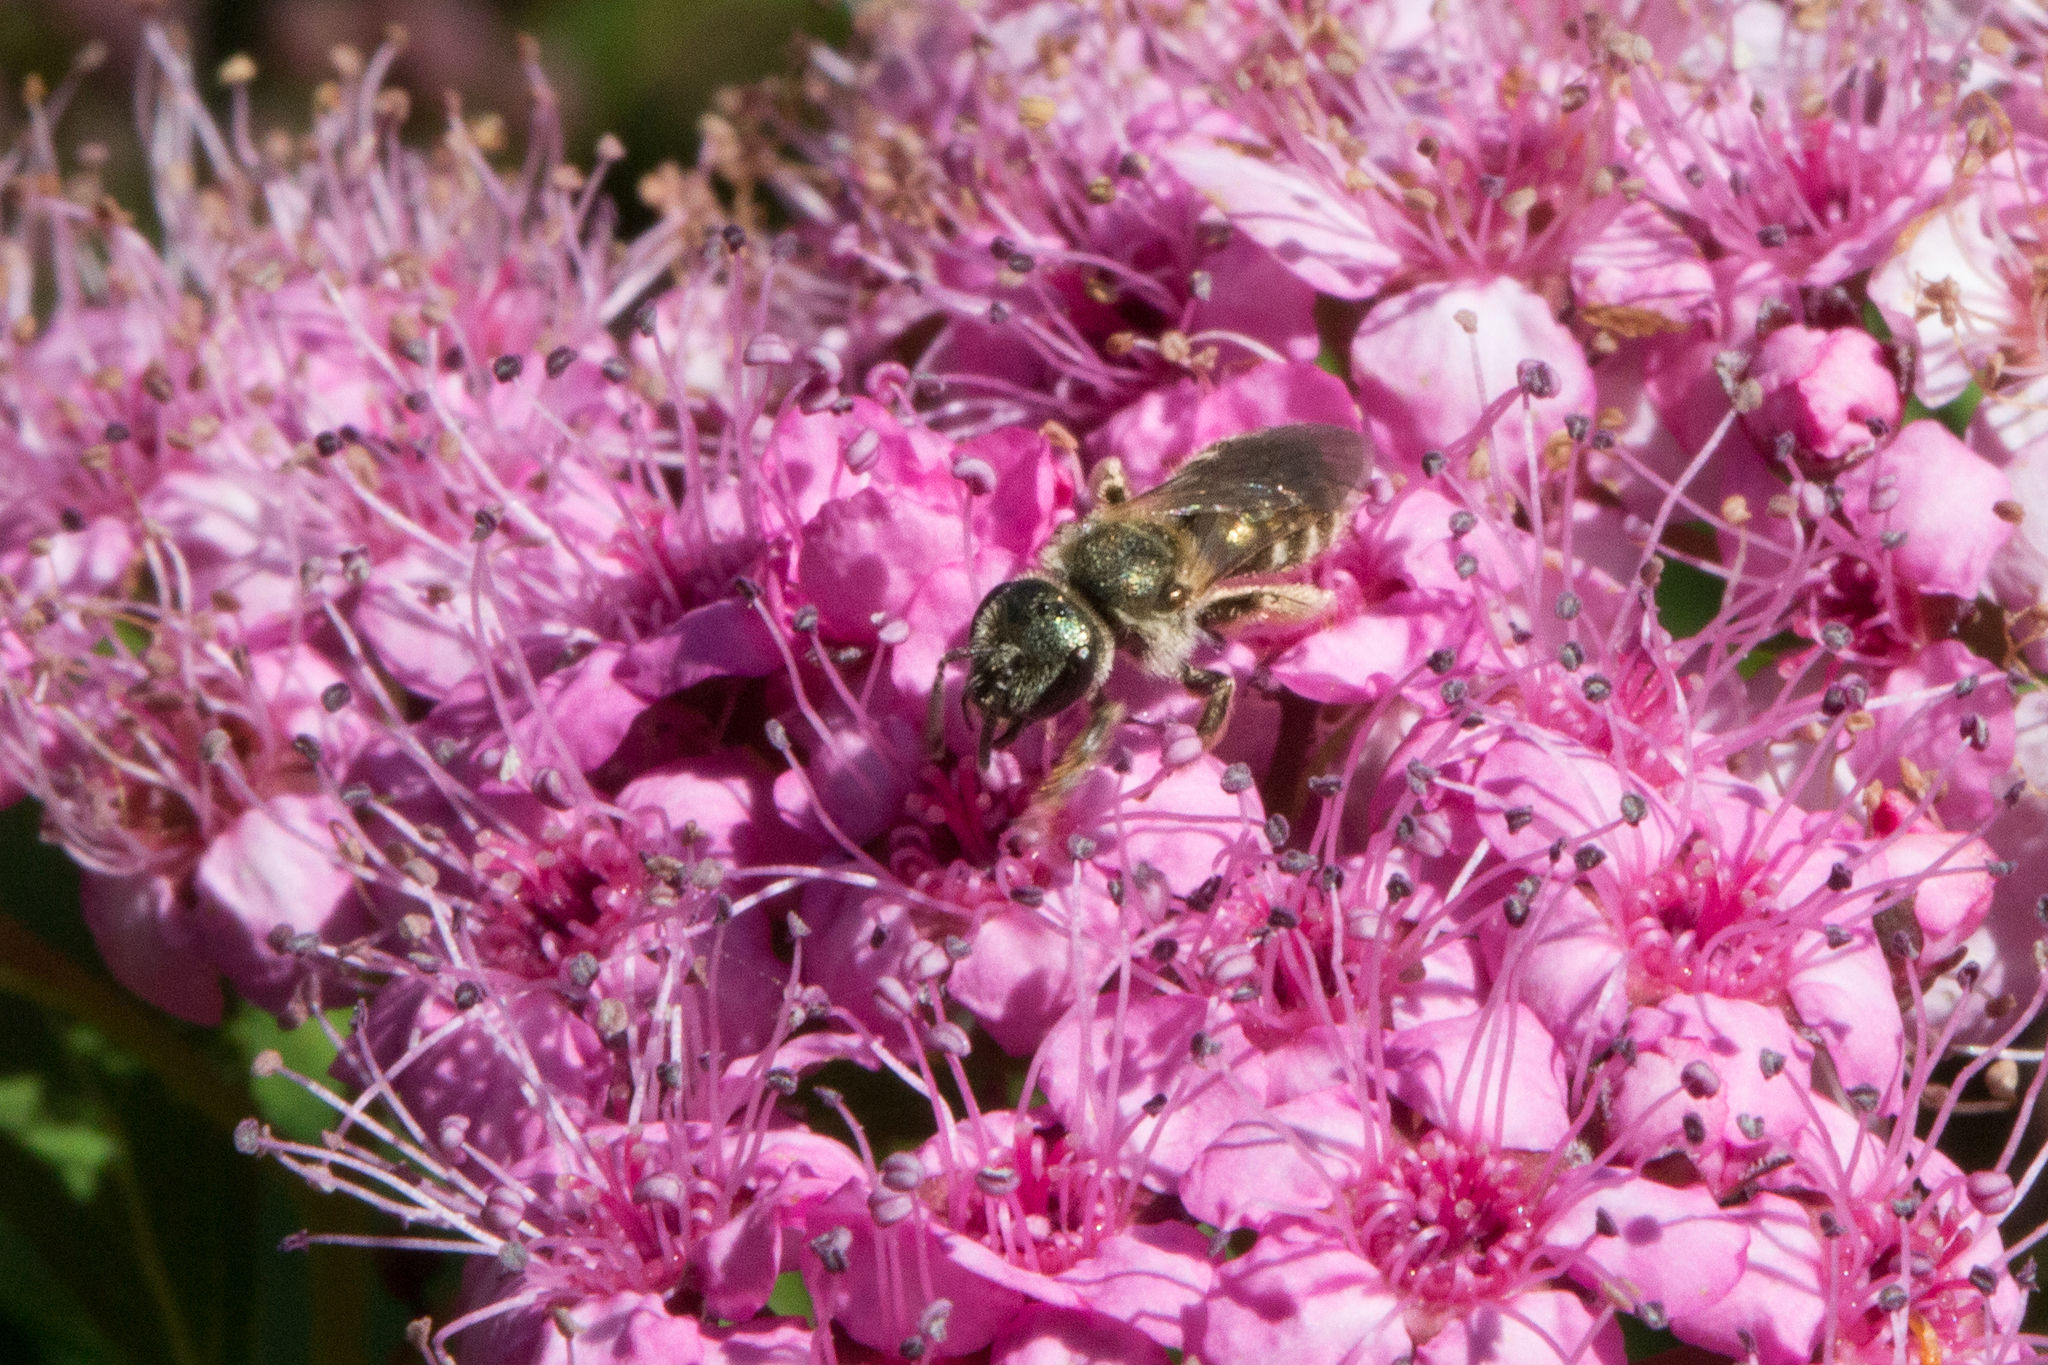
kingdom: Animalia
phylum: Arthropoda
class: Insecta
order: Hymenoptera
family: Halictidae
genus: Halictus
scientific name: Halictus confusus
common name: Southern bronze furrow bee
